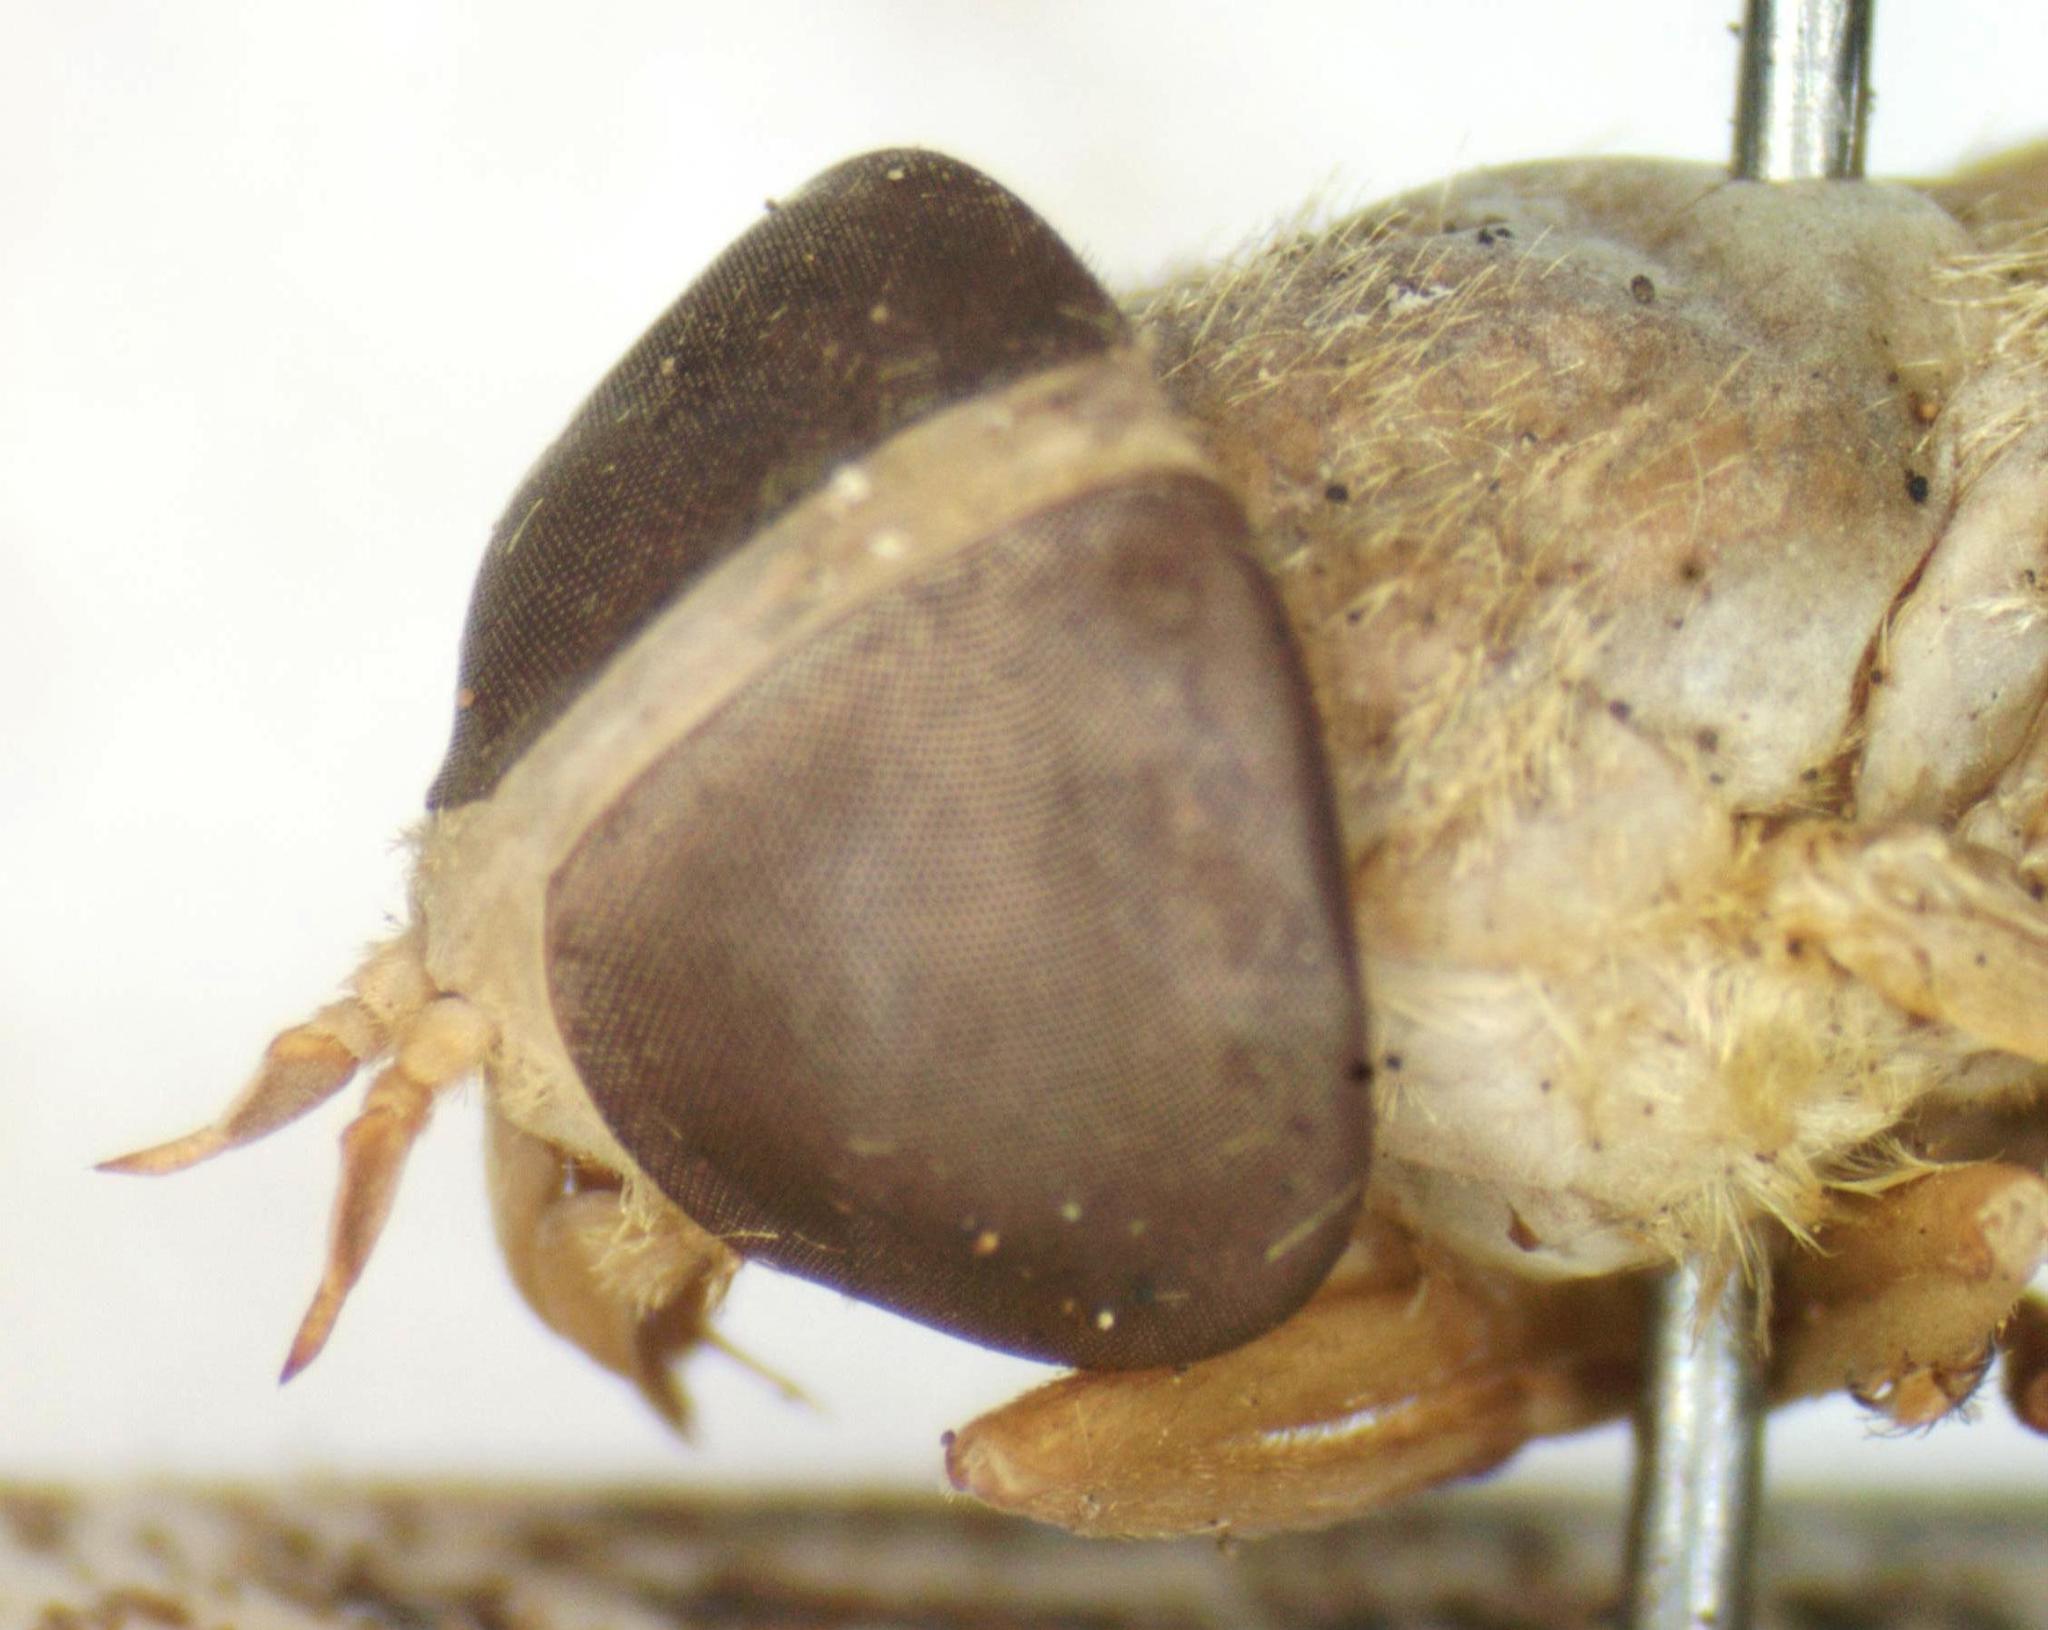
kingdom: Animalia
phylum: Arthropoda
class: Insecta
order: Diptera
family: Tabanidae
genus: Chlorotabanus
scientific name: Chlorotabanus mexicanus
